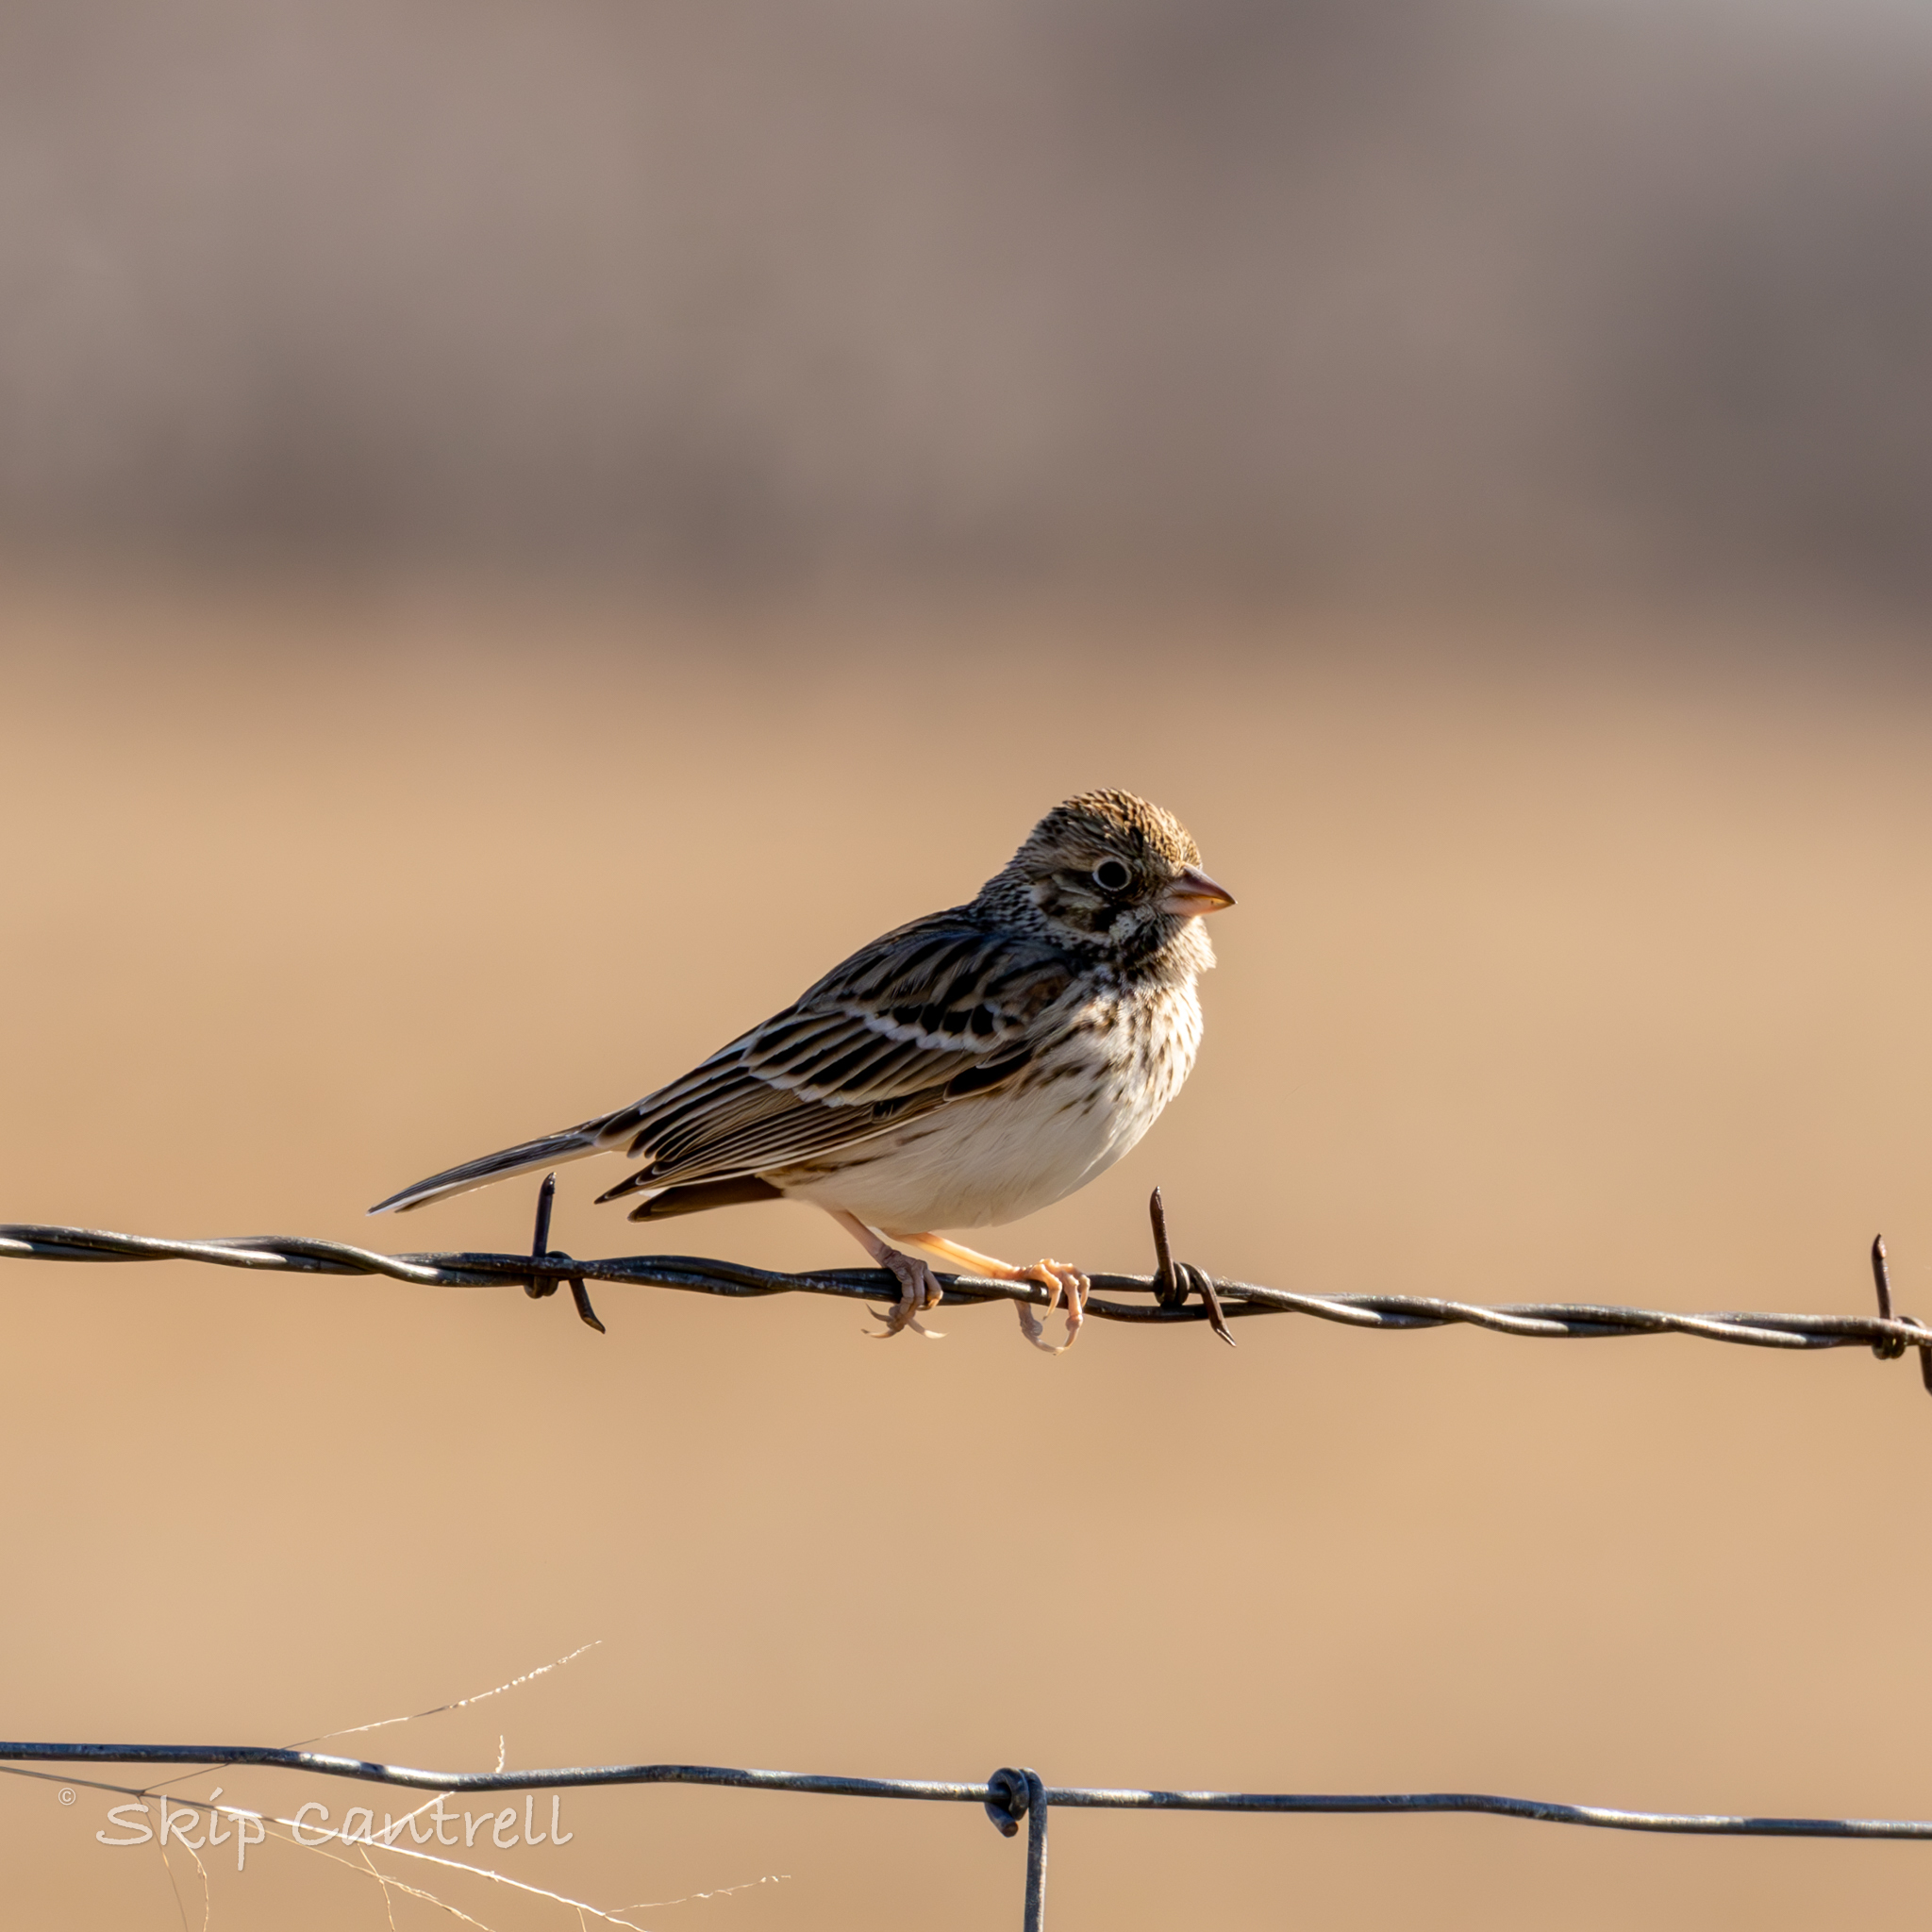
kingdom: Animalia
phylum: Chordata
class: Aves
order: Passeriformes
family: Passerellidae
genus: Pooecetes
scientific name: Pooecetes gramineus
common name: Vesper sparrow
